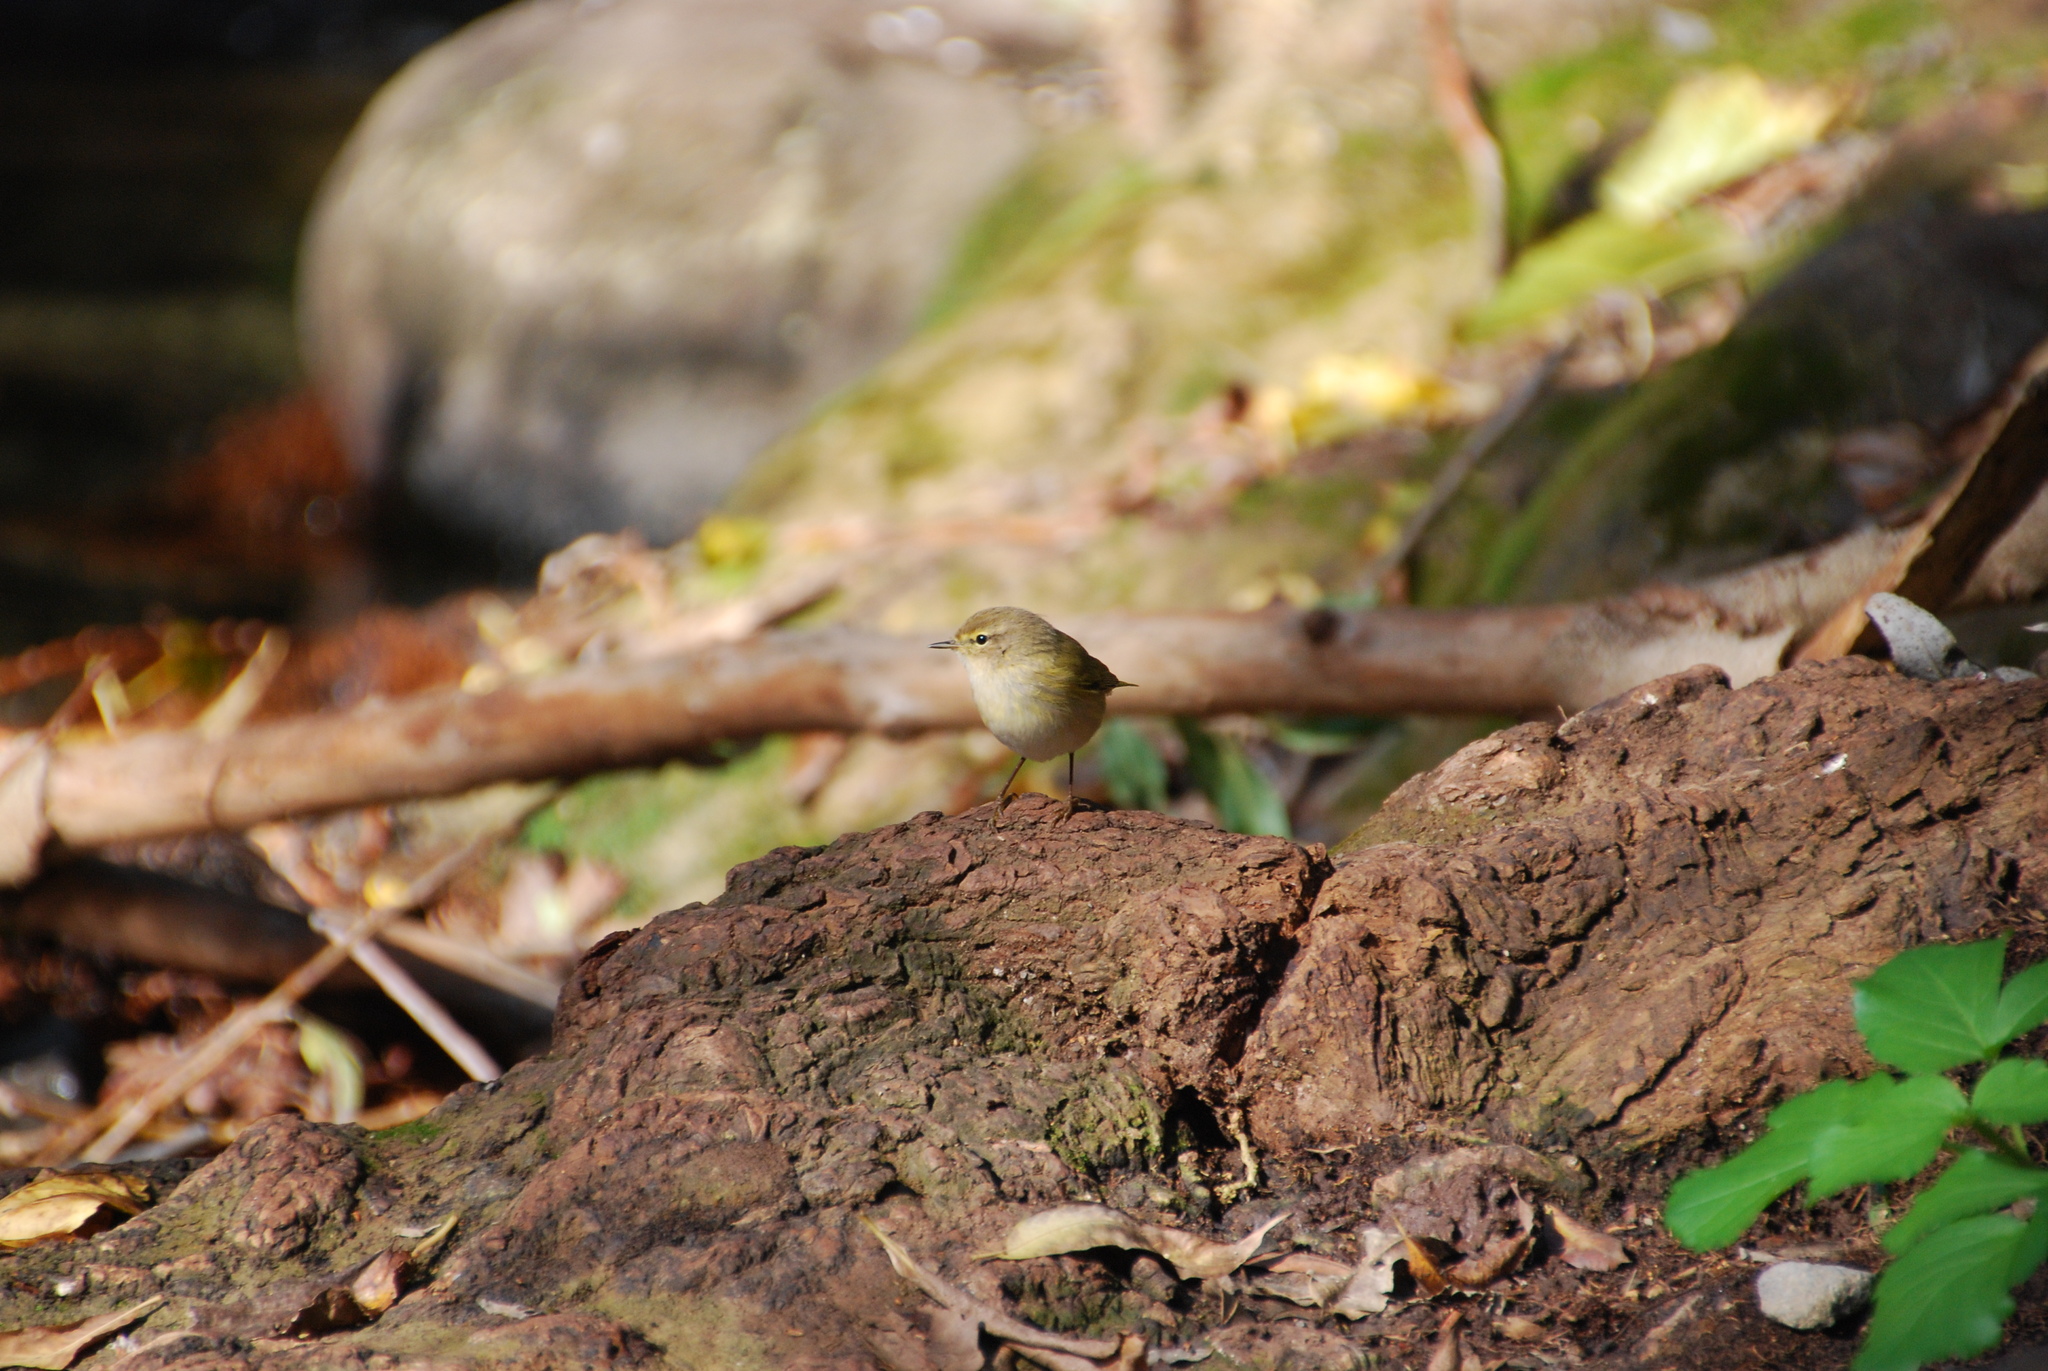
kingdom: Animalia
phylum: Chordata
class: Aves
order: Passeriformes
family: Phylloscopidae
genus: Phylloscopus
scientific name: Phylloscopus collybita
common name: Common chiffchaff
